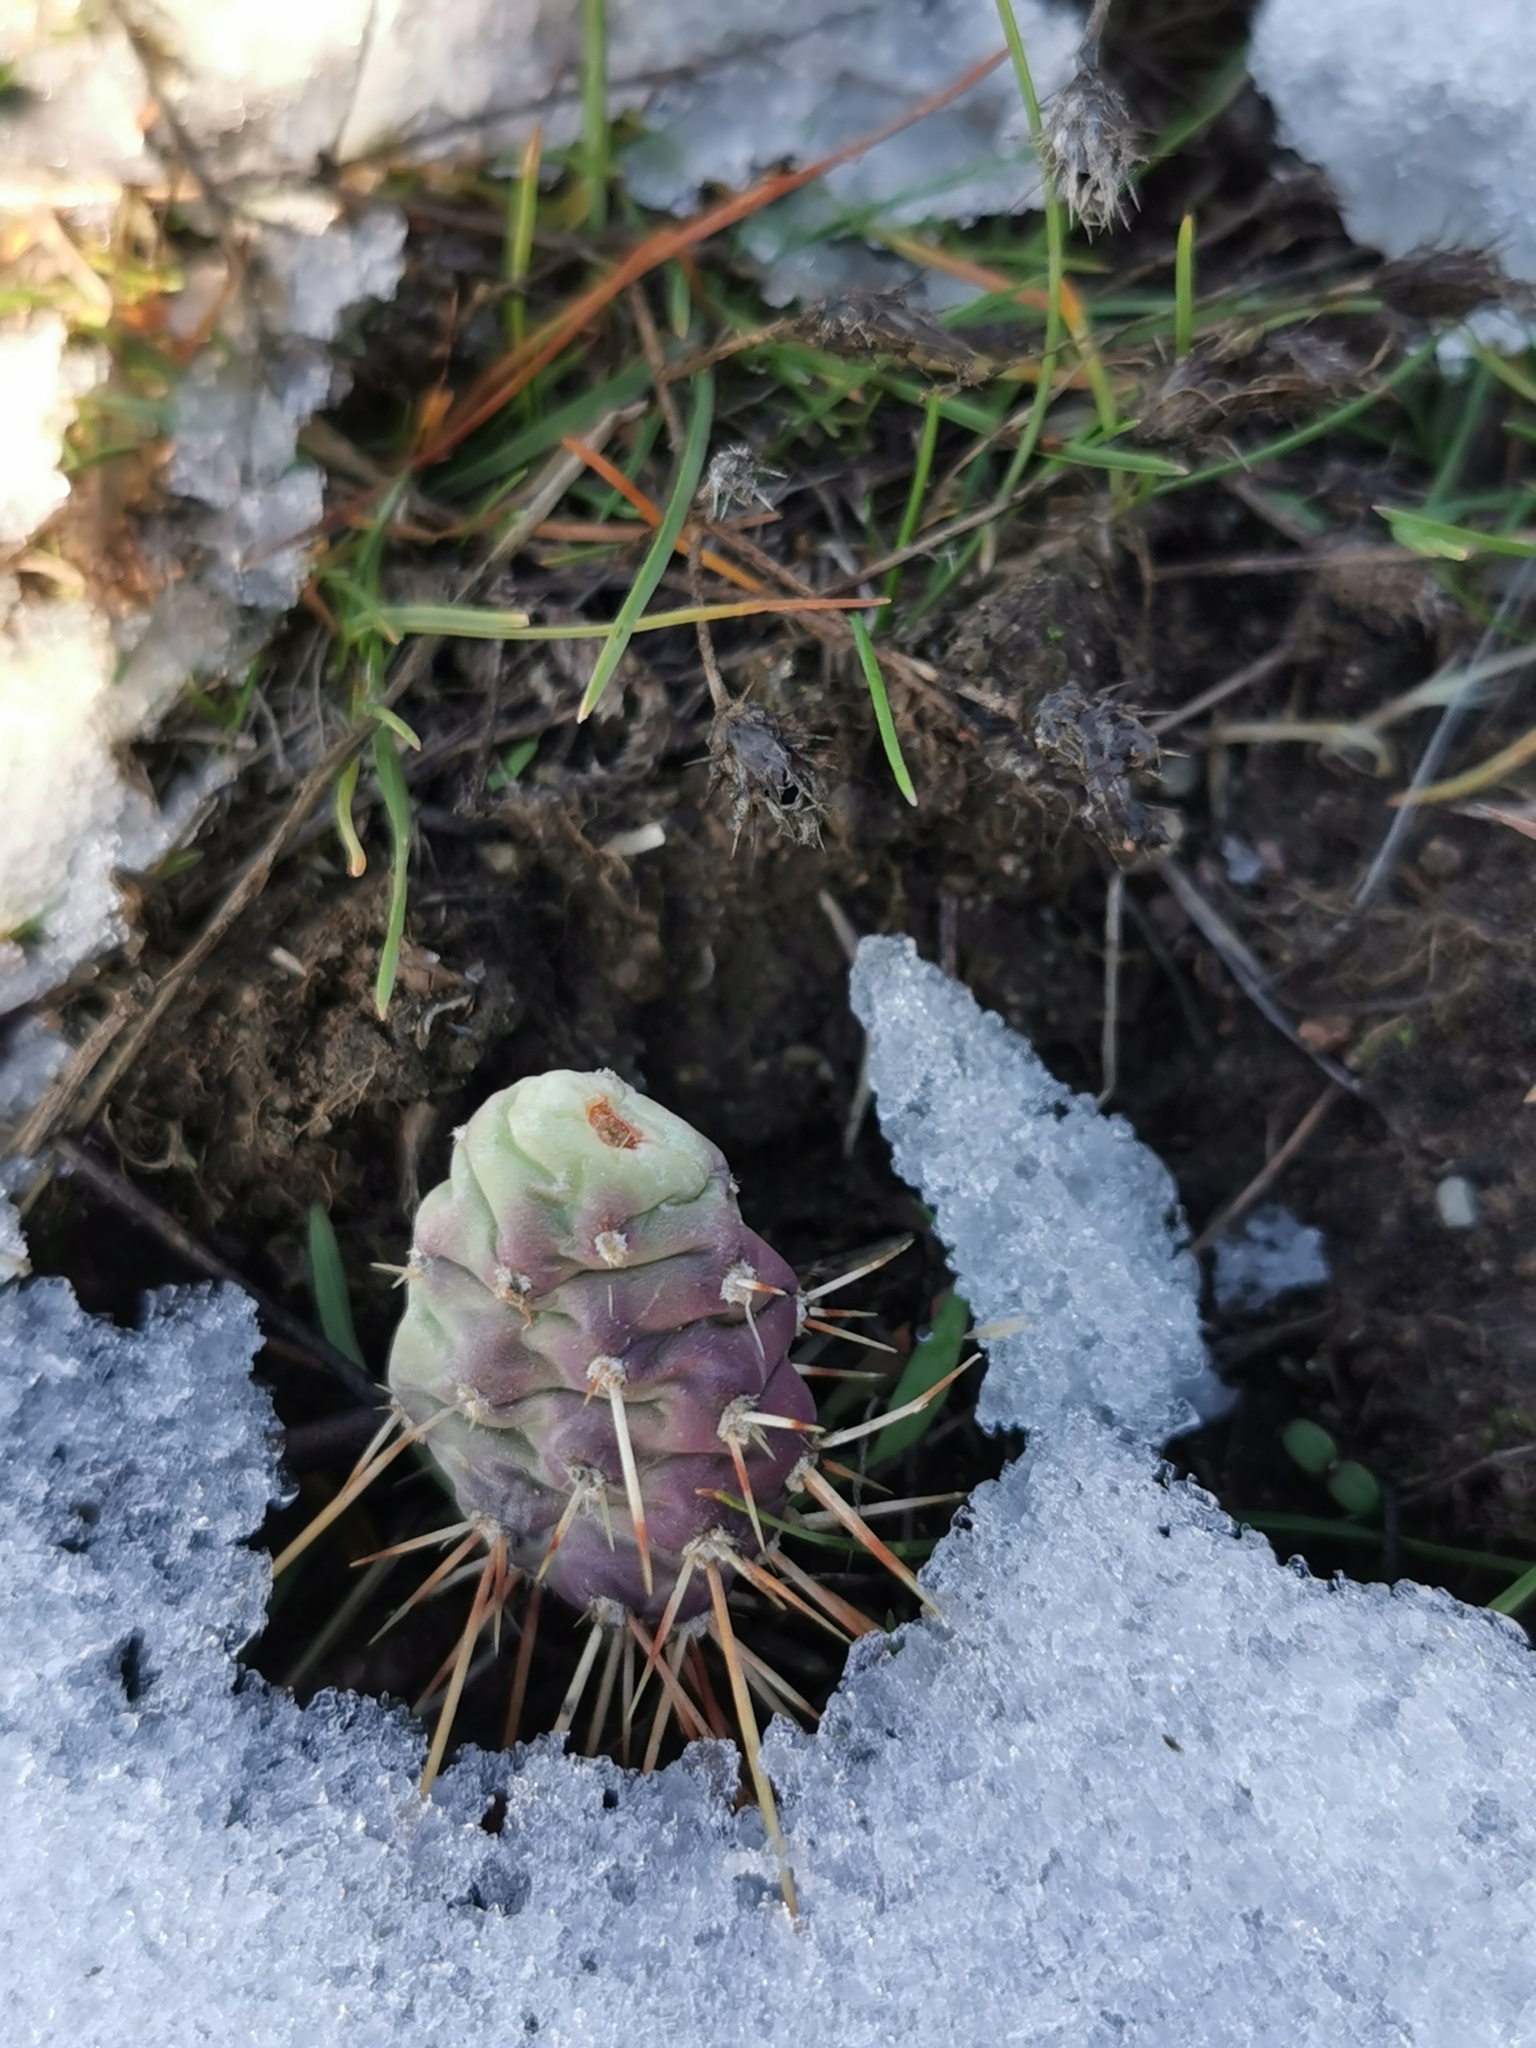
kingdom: Plantae
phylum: Tracheophyta
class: Magnoliopsida
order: Caryophyllales
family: Cactaceae
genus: Opuntia
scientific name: Opuntia fragilis
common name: Brittle cactus
